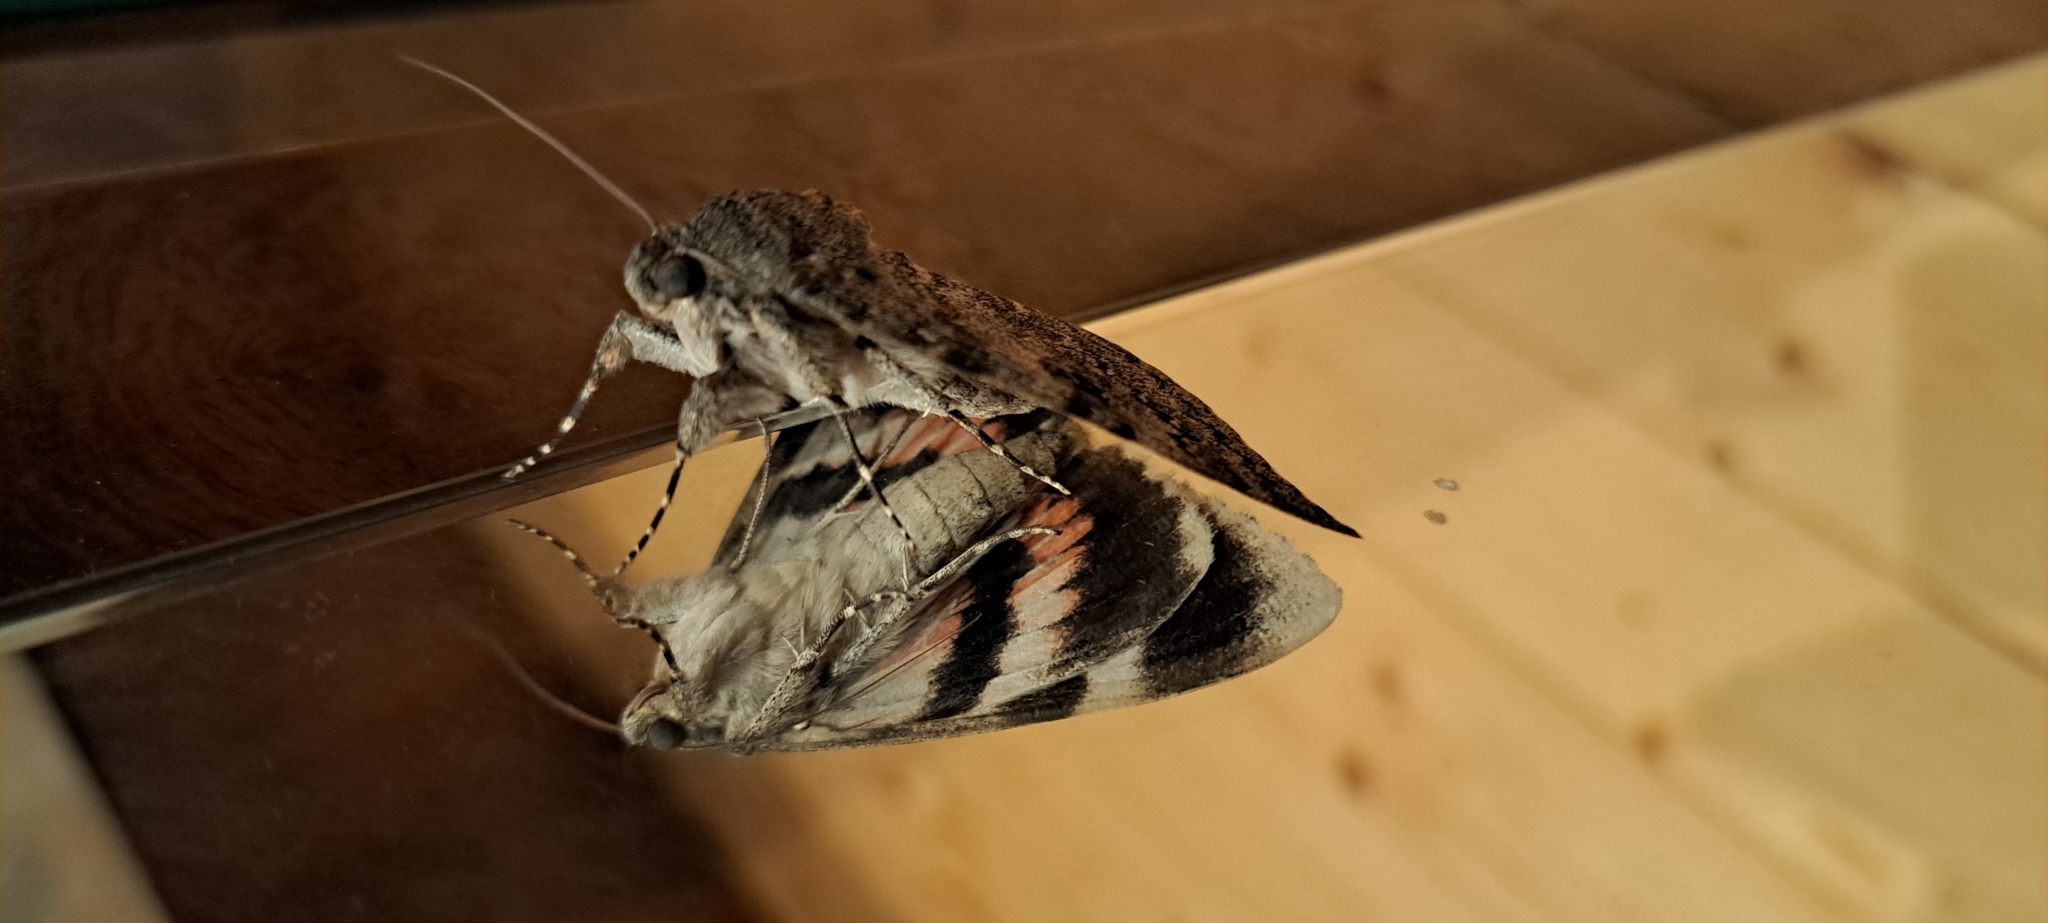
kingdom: Animalia
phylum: Arthropoda
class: Insecta
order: Lepidoptera
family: Erebidae
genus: Catocala
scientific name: Catocala elocata
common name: French red underwing
